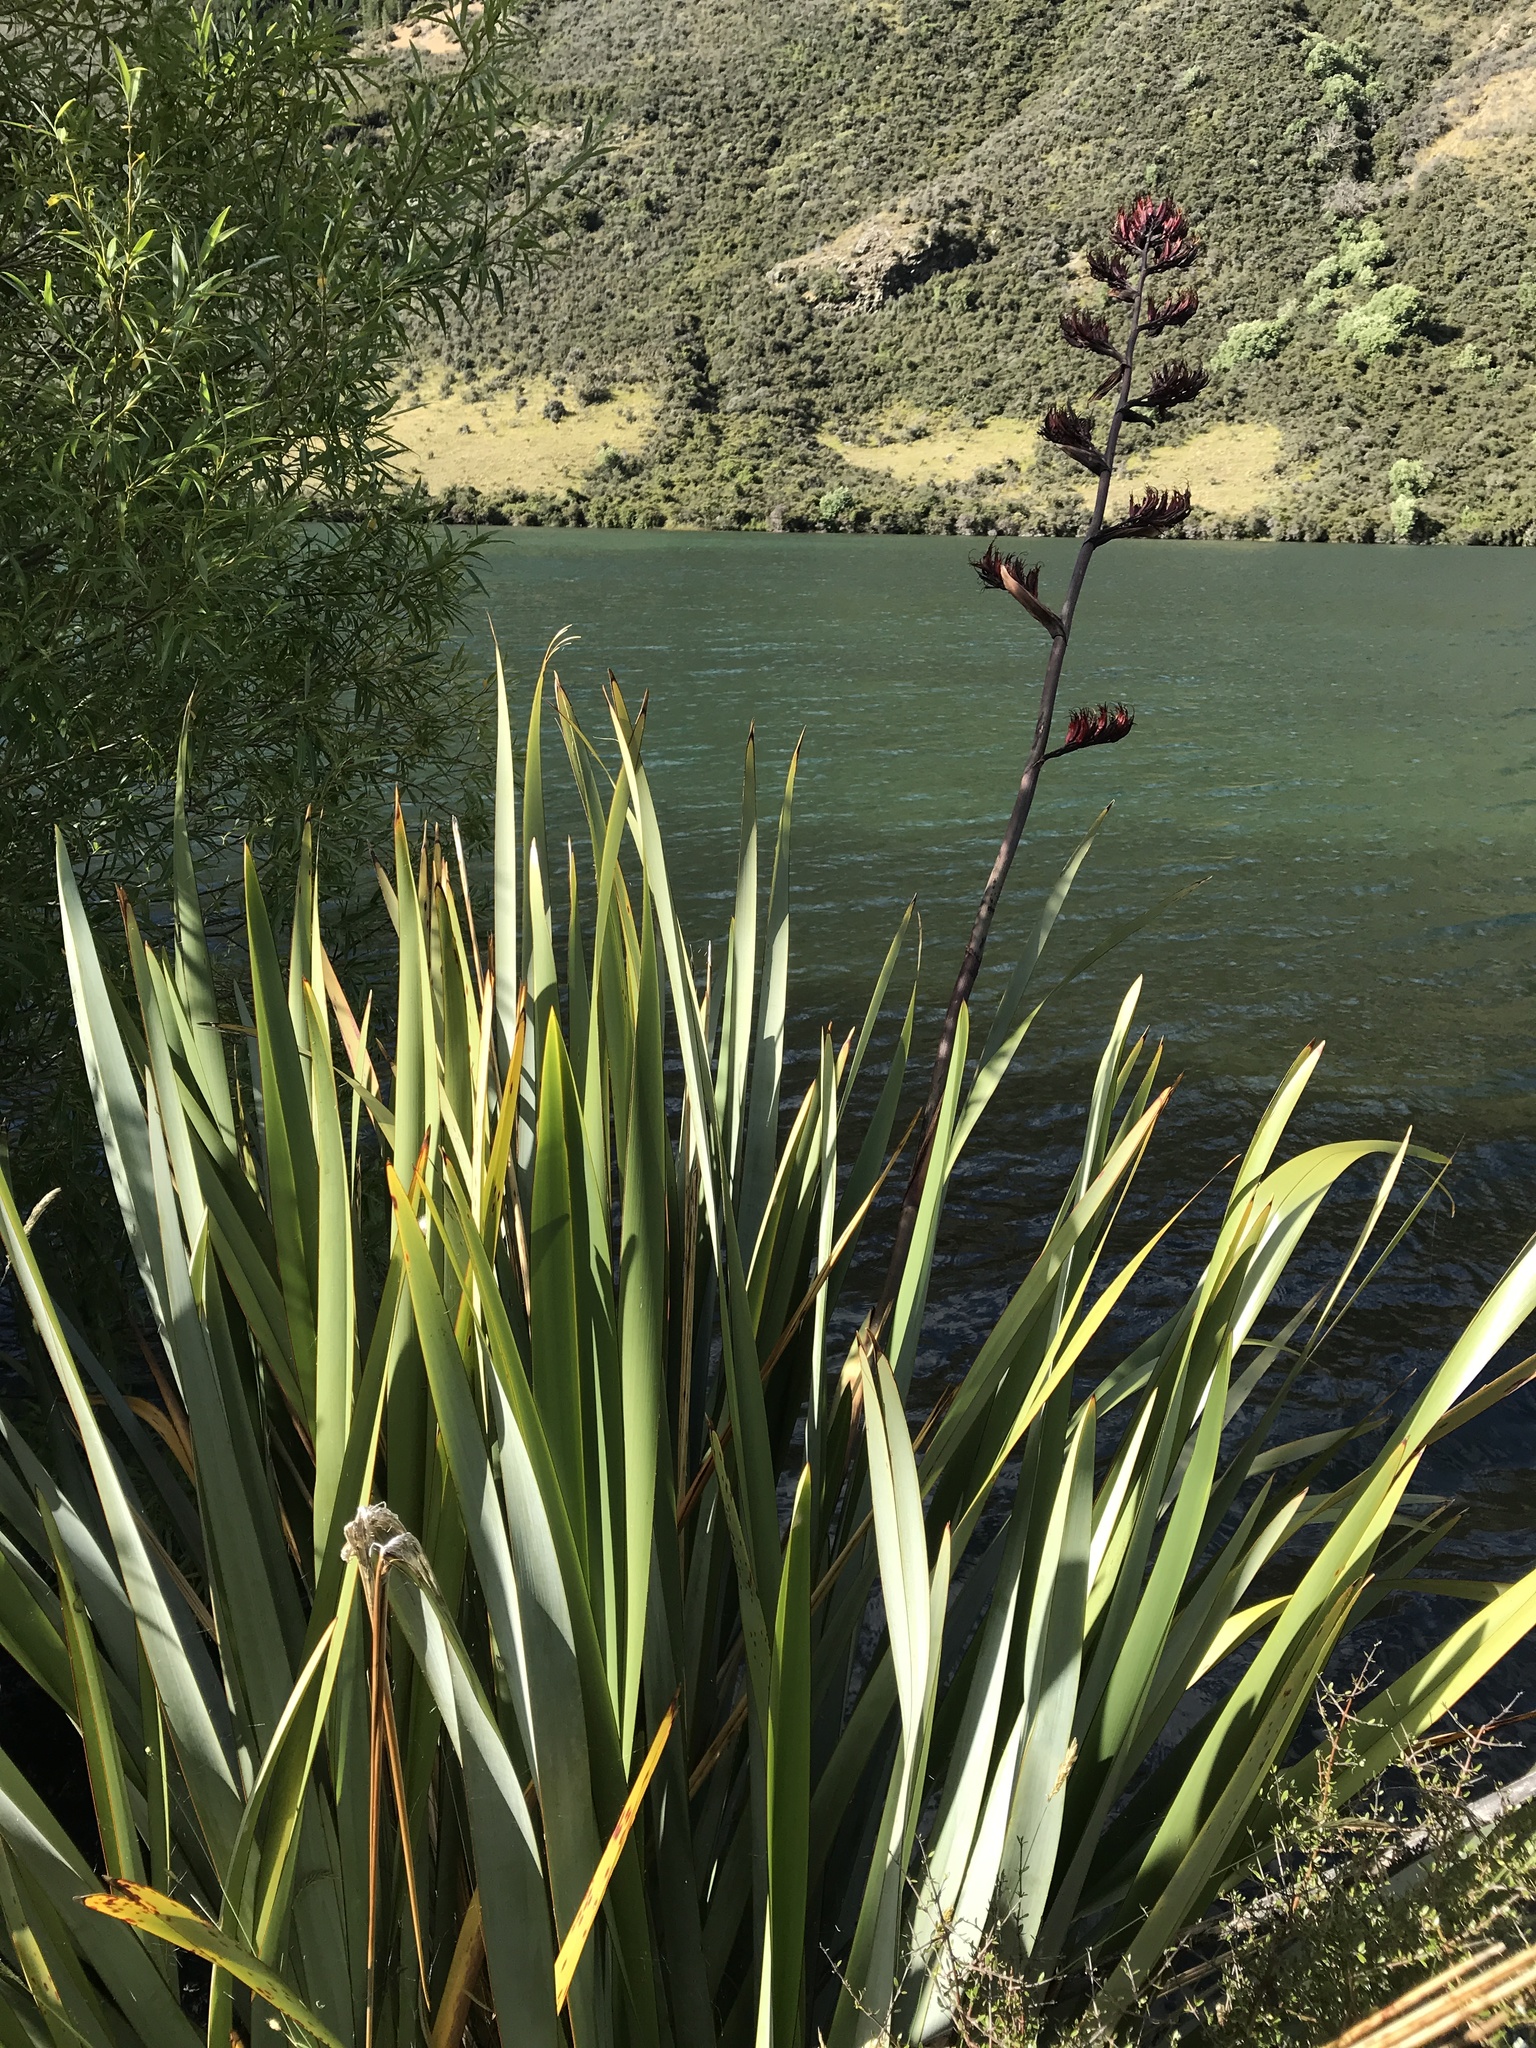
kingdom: Plantae
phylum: Tracheophyta
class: Liliopsida
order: Asparagales
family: Asphodelaceae
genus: Phormium
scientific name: Phormium tenax
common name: New zealand flax
